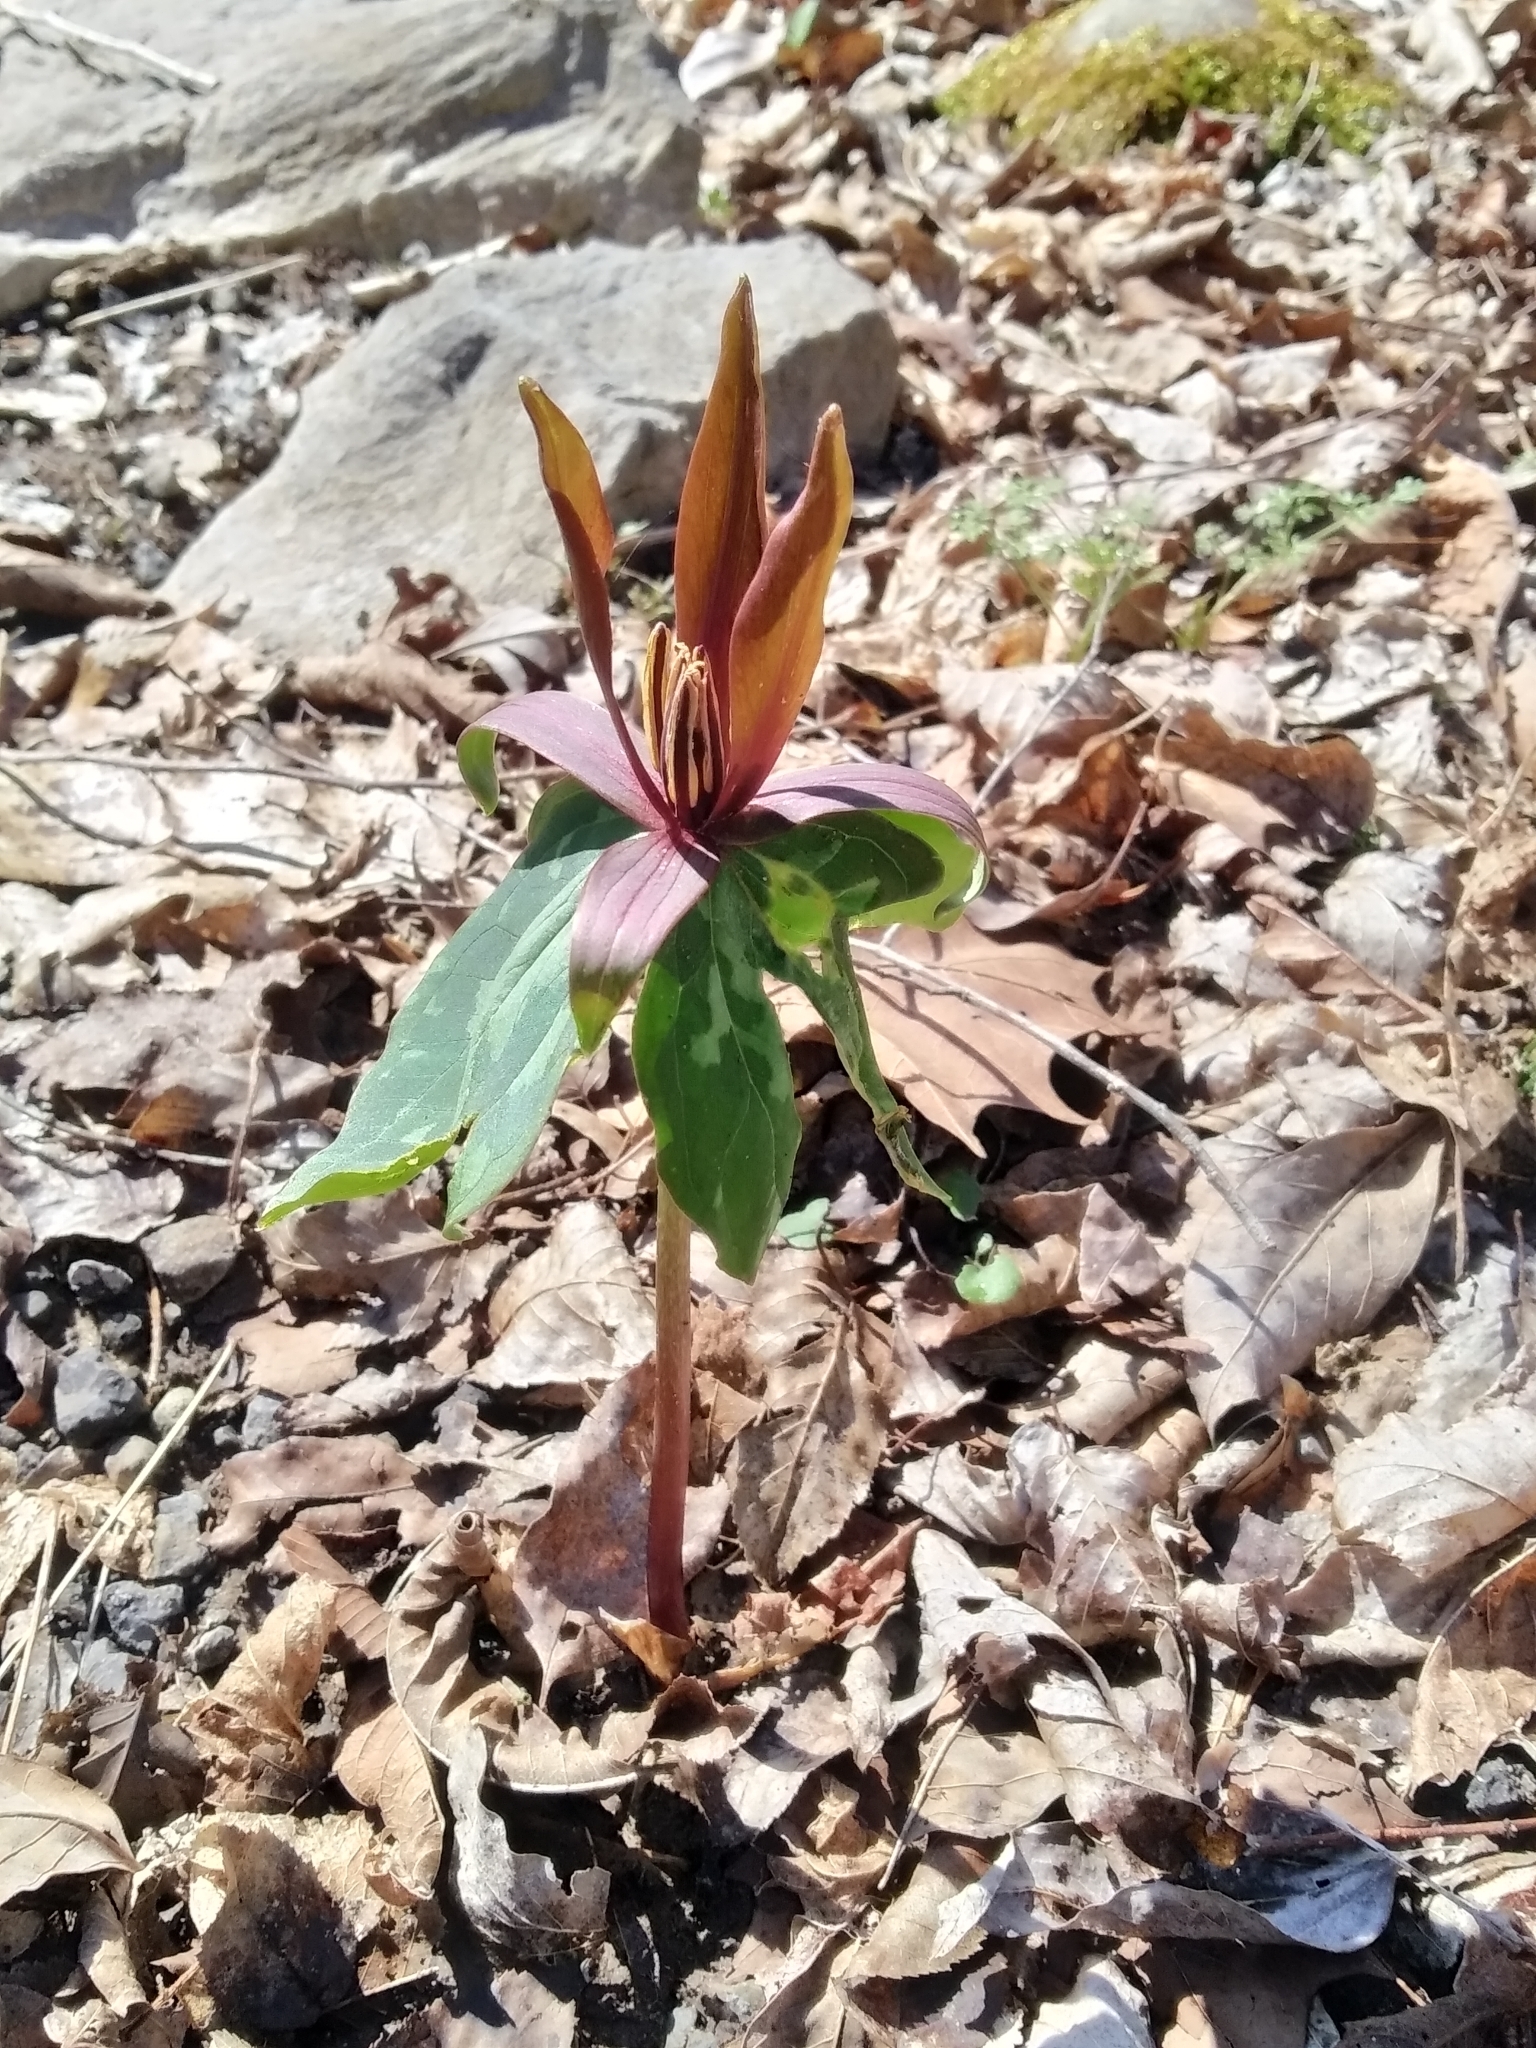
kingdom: Plantae
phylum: Tracheophyta
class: Liliopsida
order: Liliales
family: Melanthiaceae
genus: Trillium
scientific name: Trillium cuneatum
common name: Cuneate trillium
